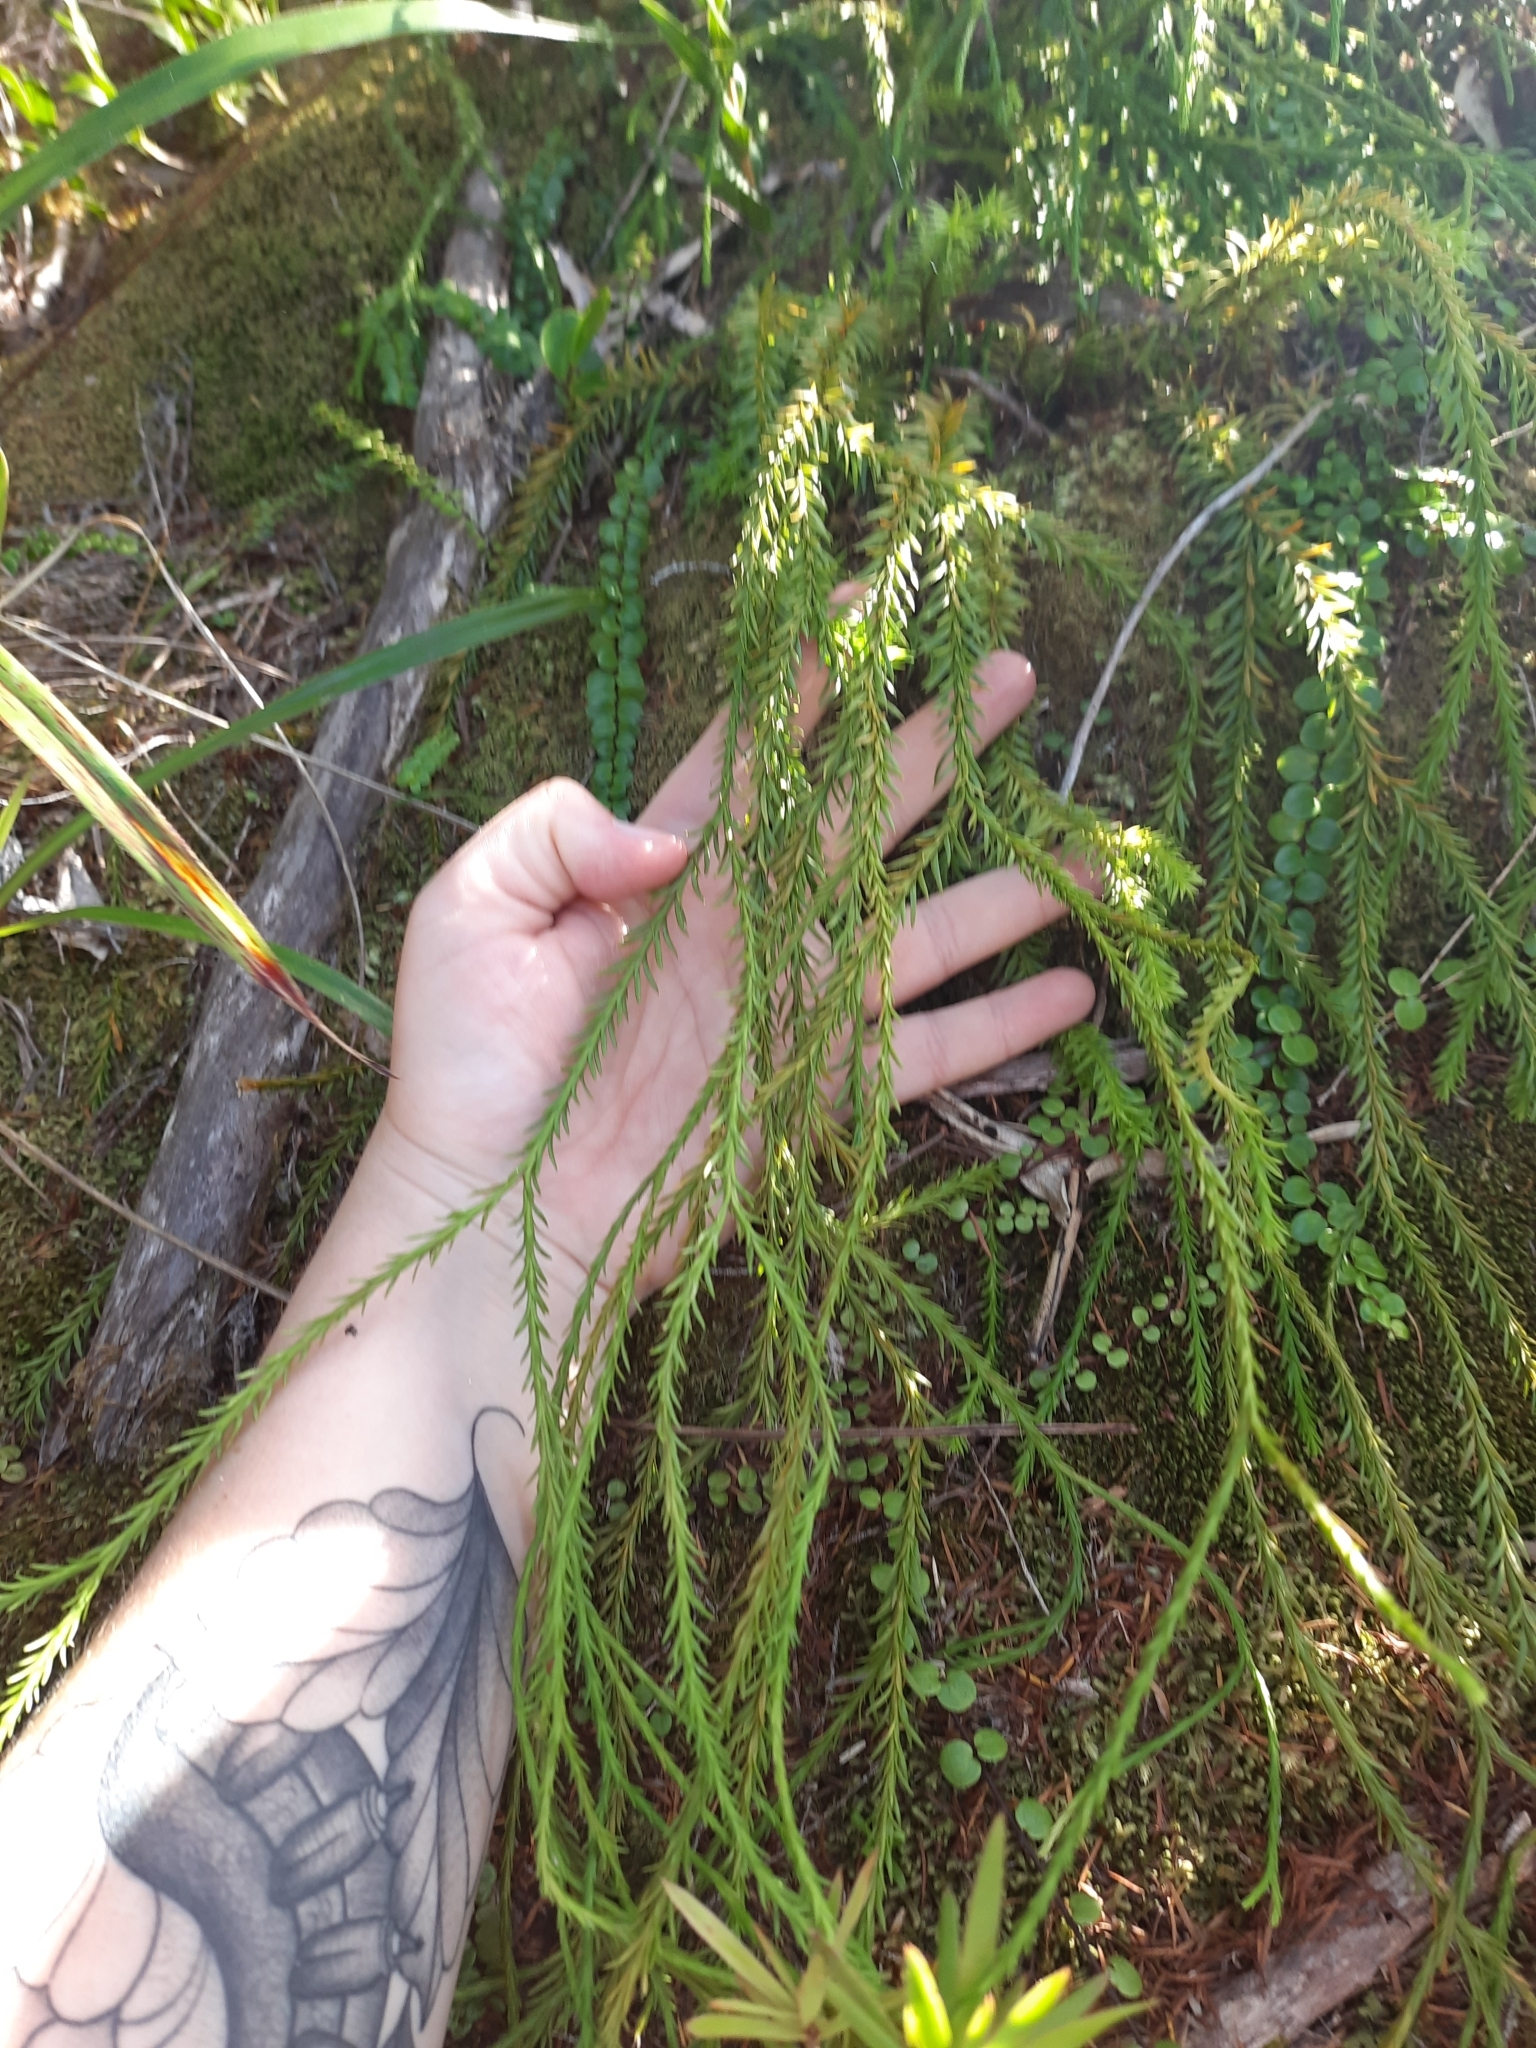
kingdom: Plantae
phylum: Tracheophyta
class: Lycopodiopsida
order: Lycopodiales
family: Lycopodiaceae
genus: Phlegmariurus
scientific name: Phlegmariurus billardierei
